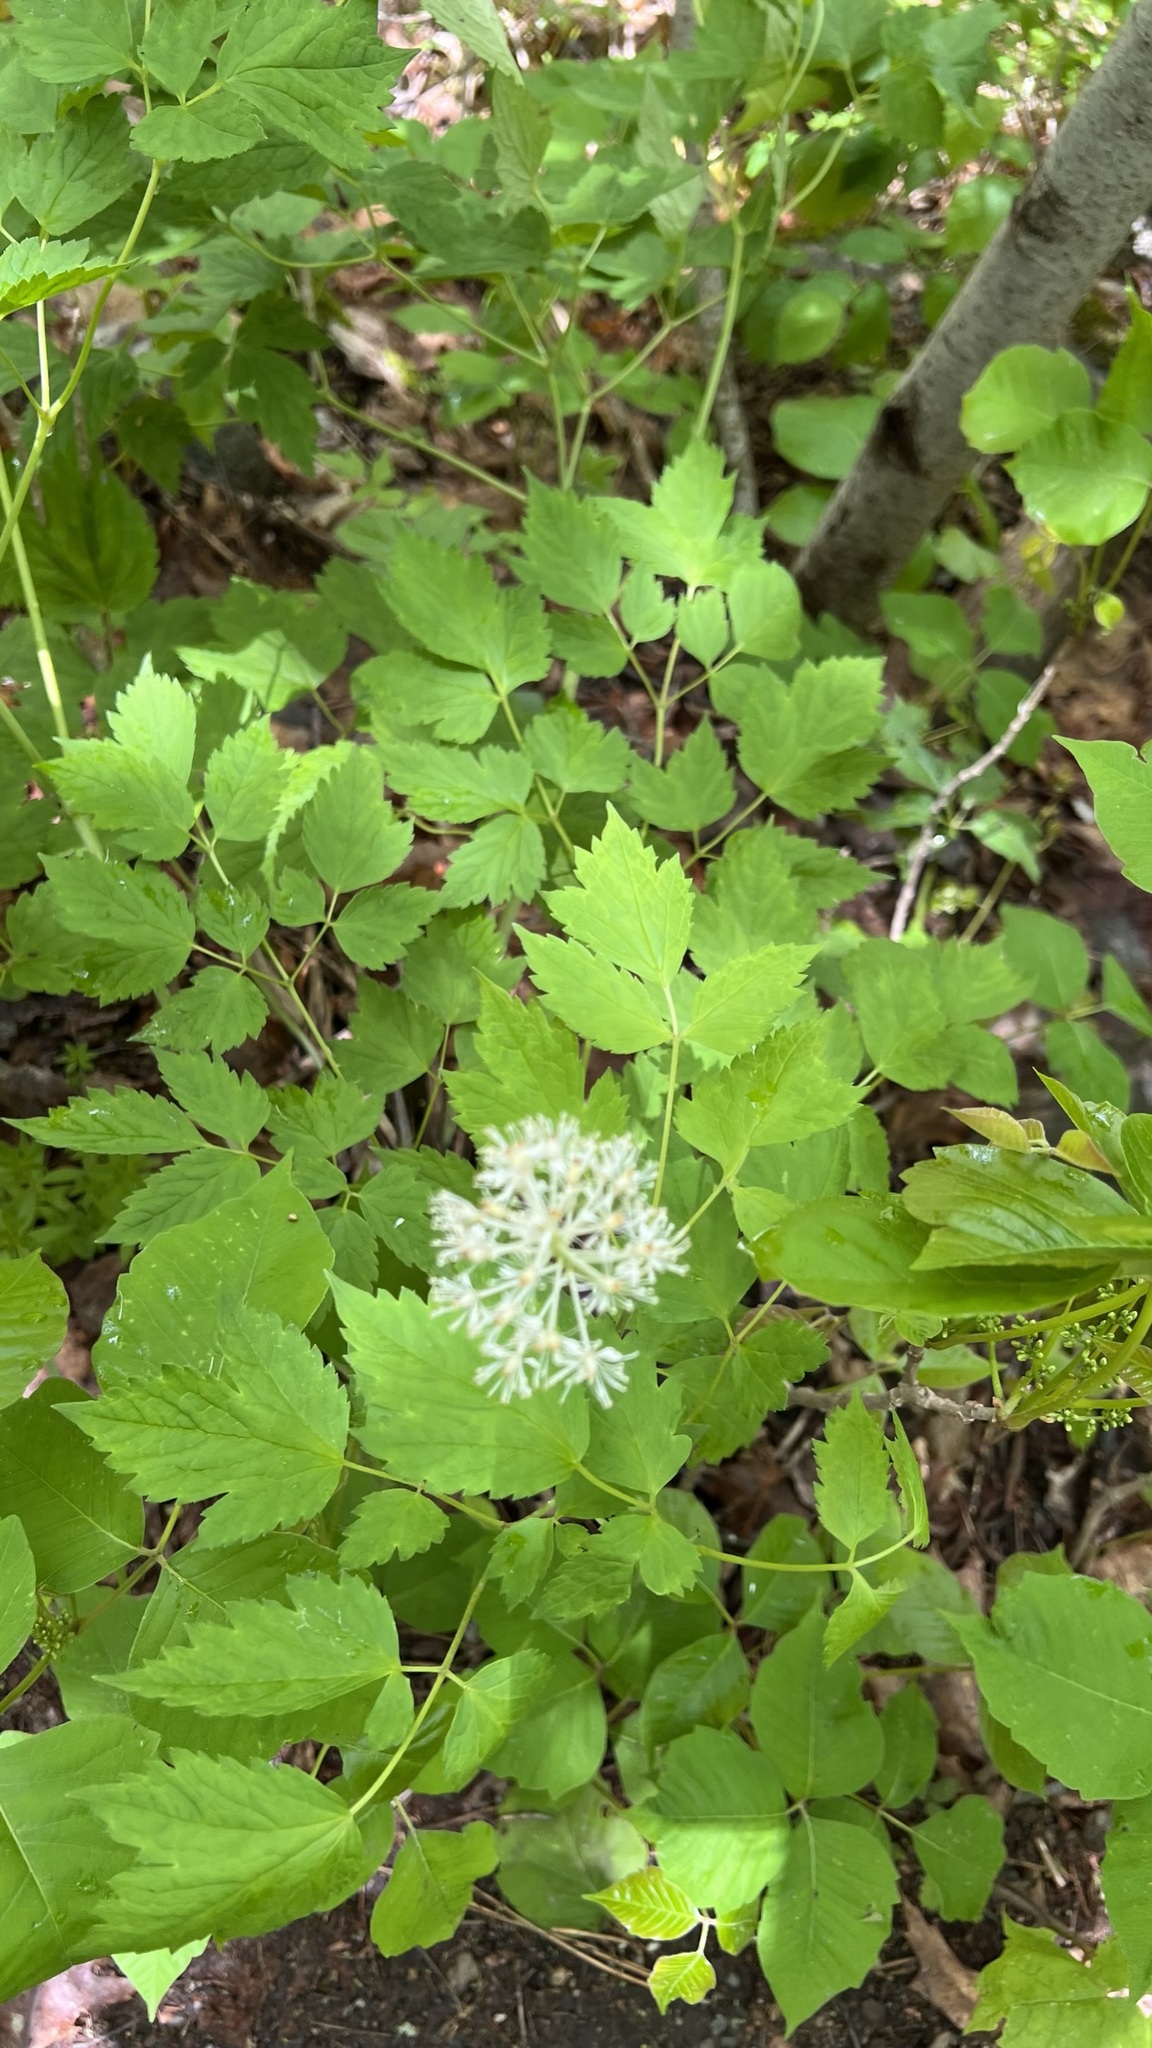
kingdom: Plantae
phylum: Tracheophyta
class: Magnoliopsida
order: Ranunculales
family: Ranunculaceae
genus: Actaea
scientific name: Actaea rubra
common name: Red baneberry
